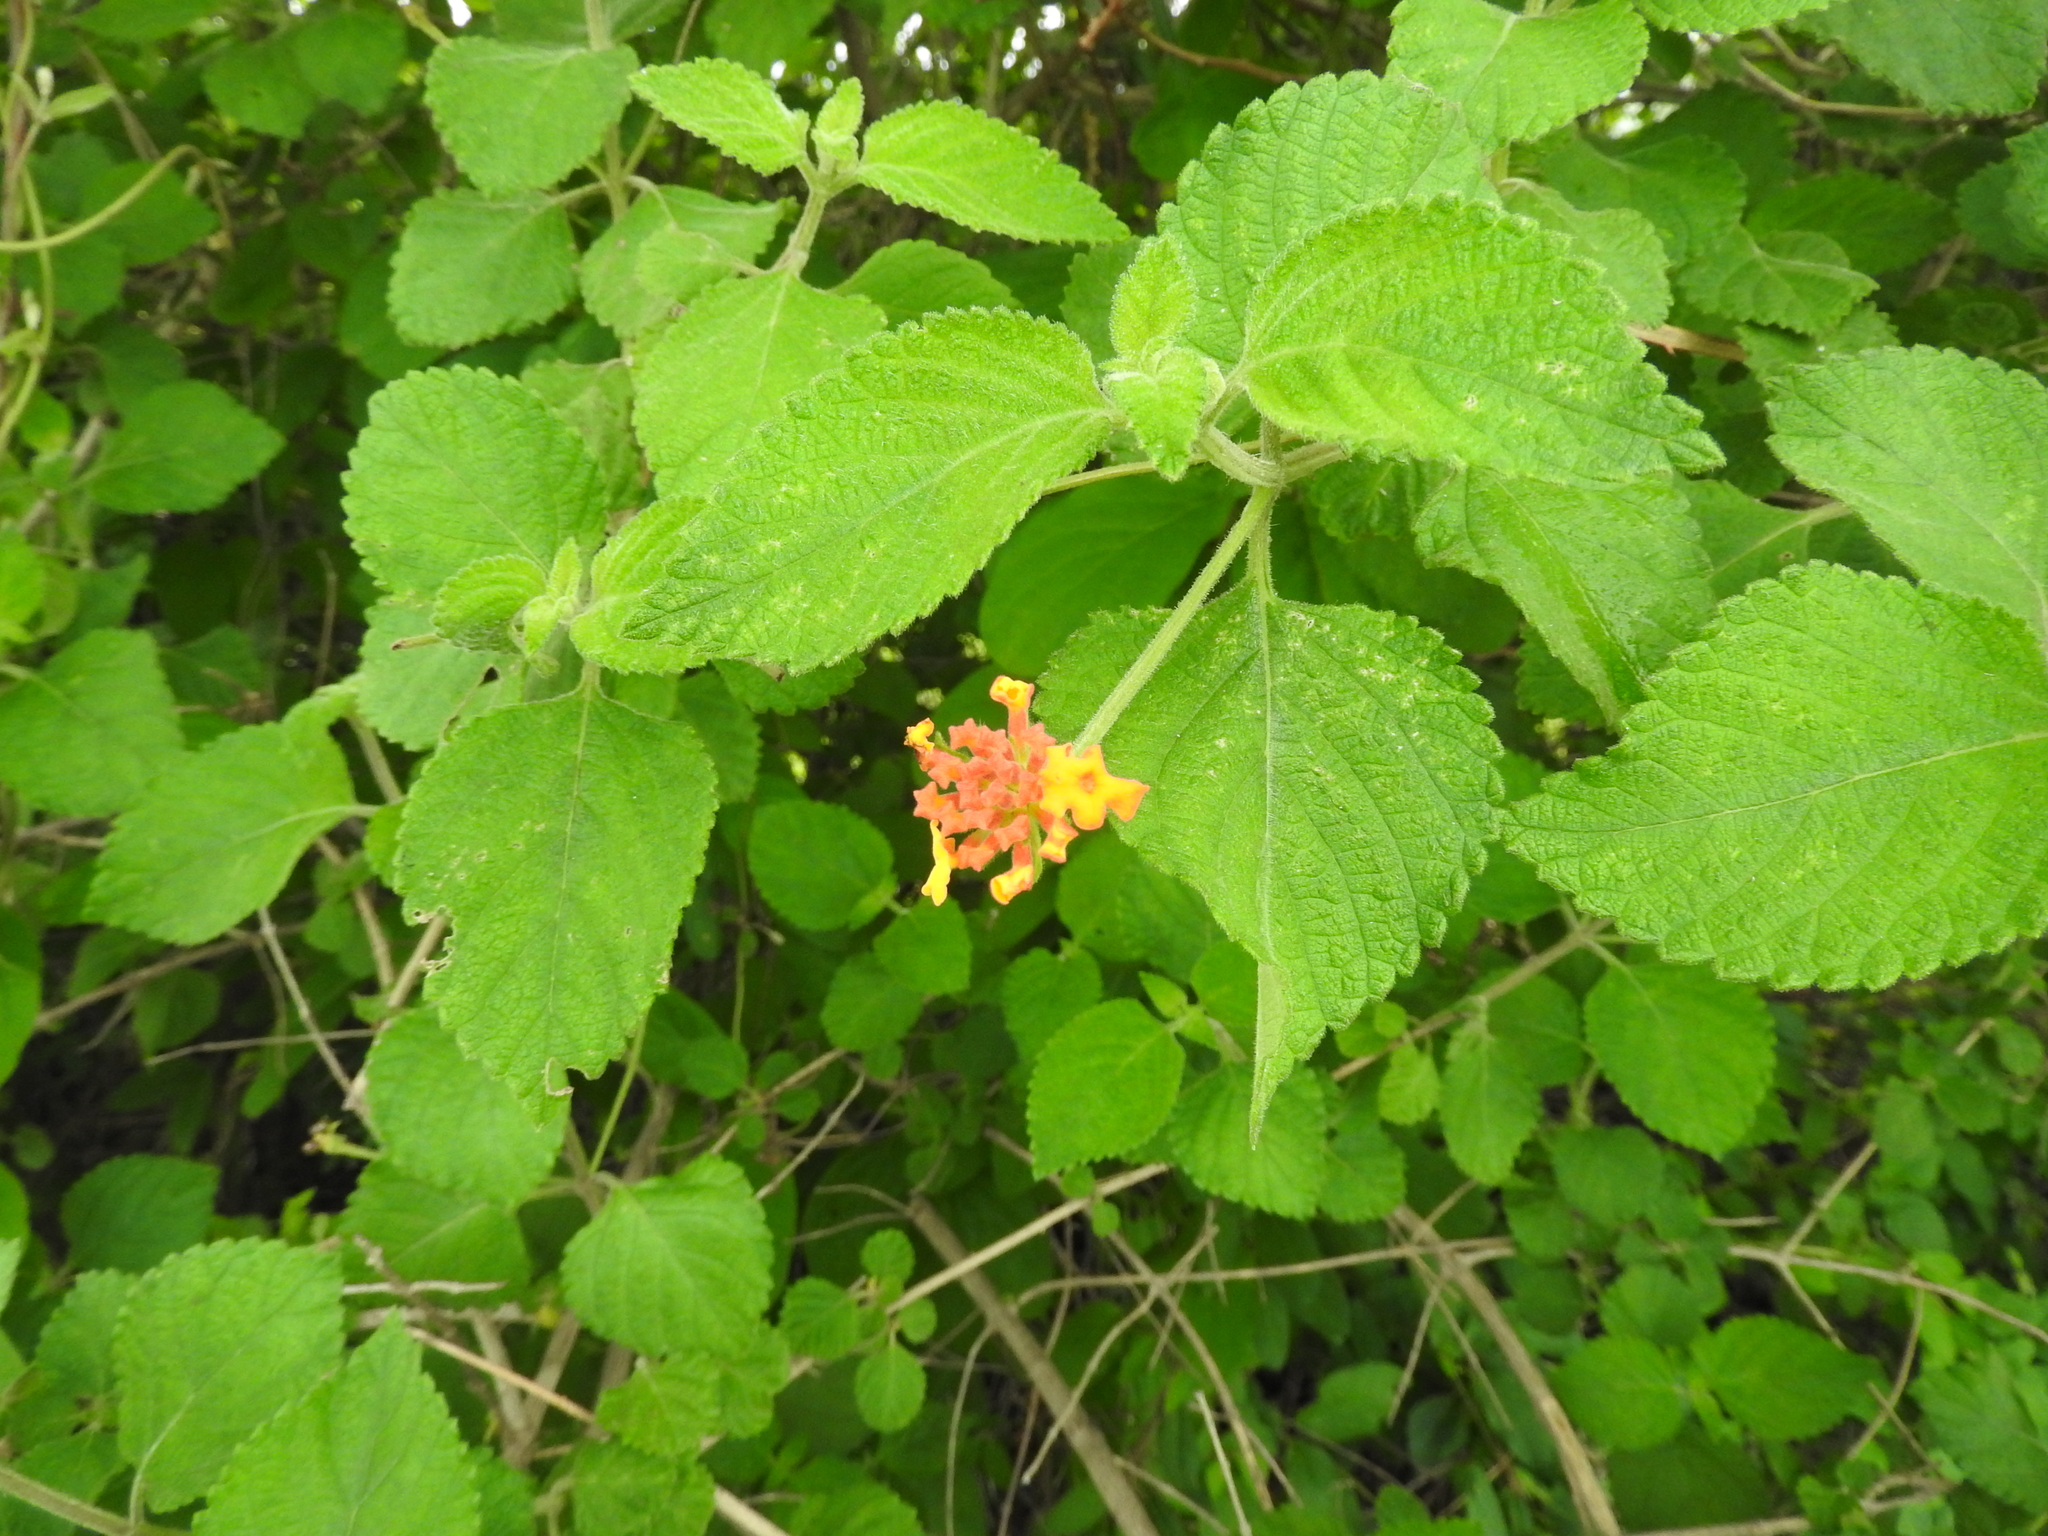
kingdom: Plantae
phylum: Tracheophyta
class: Magnoliopsida
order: Lamiales
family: Verbenaceae
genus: Lantana
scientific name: Lantana camara
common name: Lantana
